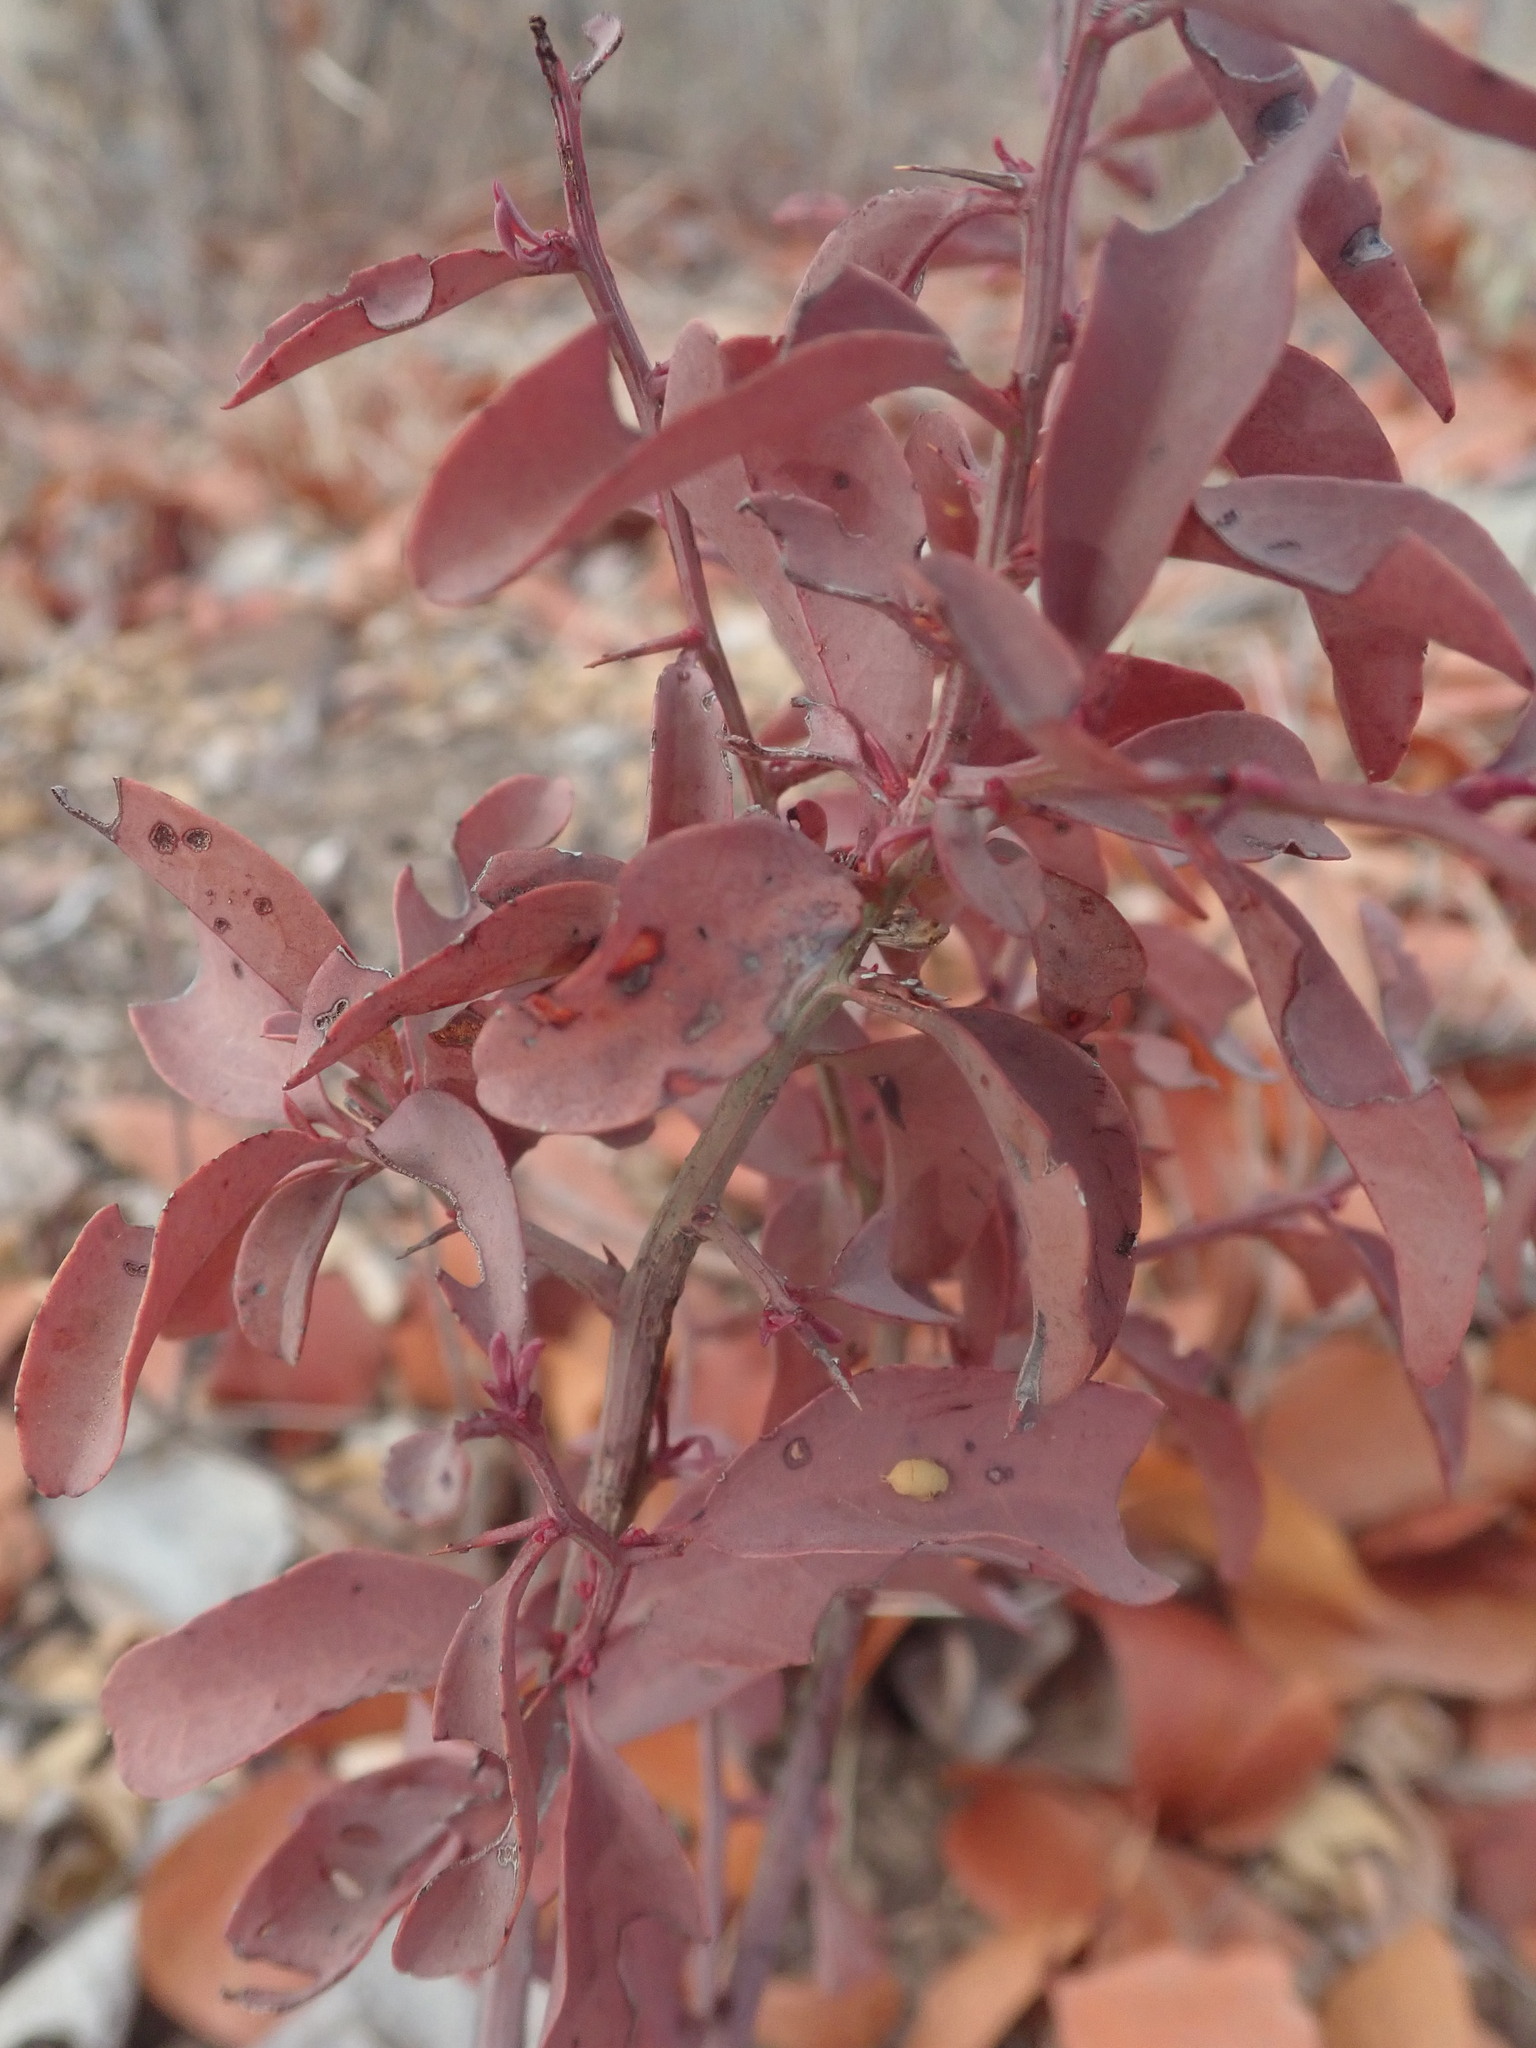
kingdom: Plantae
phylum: Tracheophyta
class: Magnoliopsida
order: Santalales
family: Ximeniaceae
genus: Ximenia
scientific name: Ximenia americana
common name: Tallowwood
